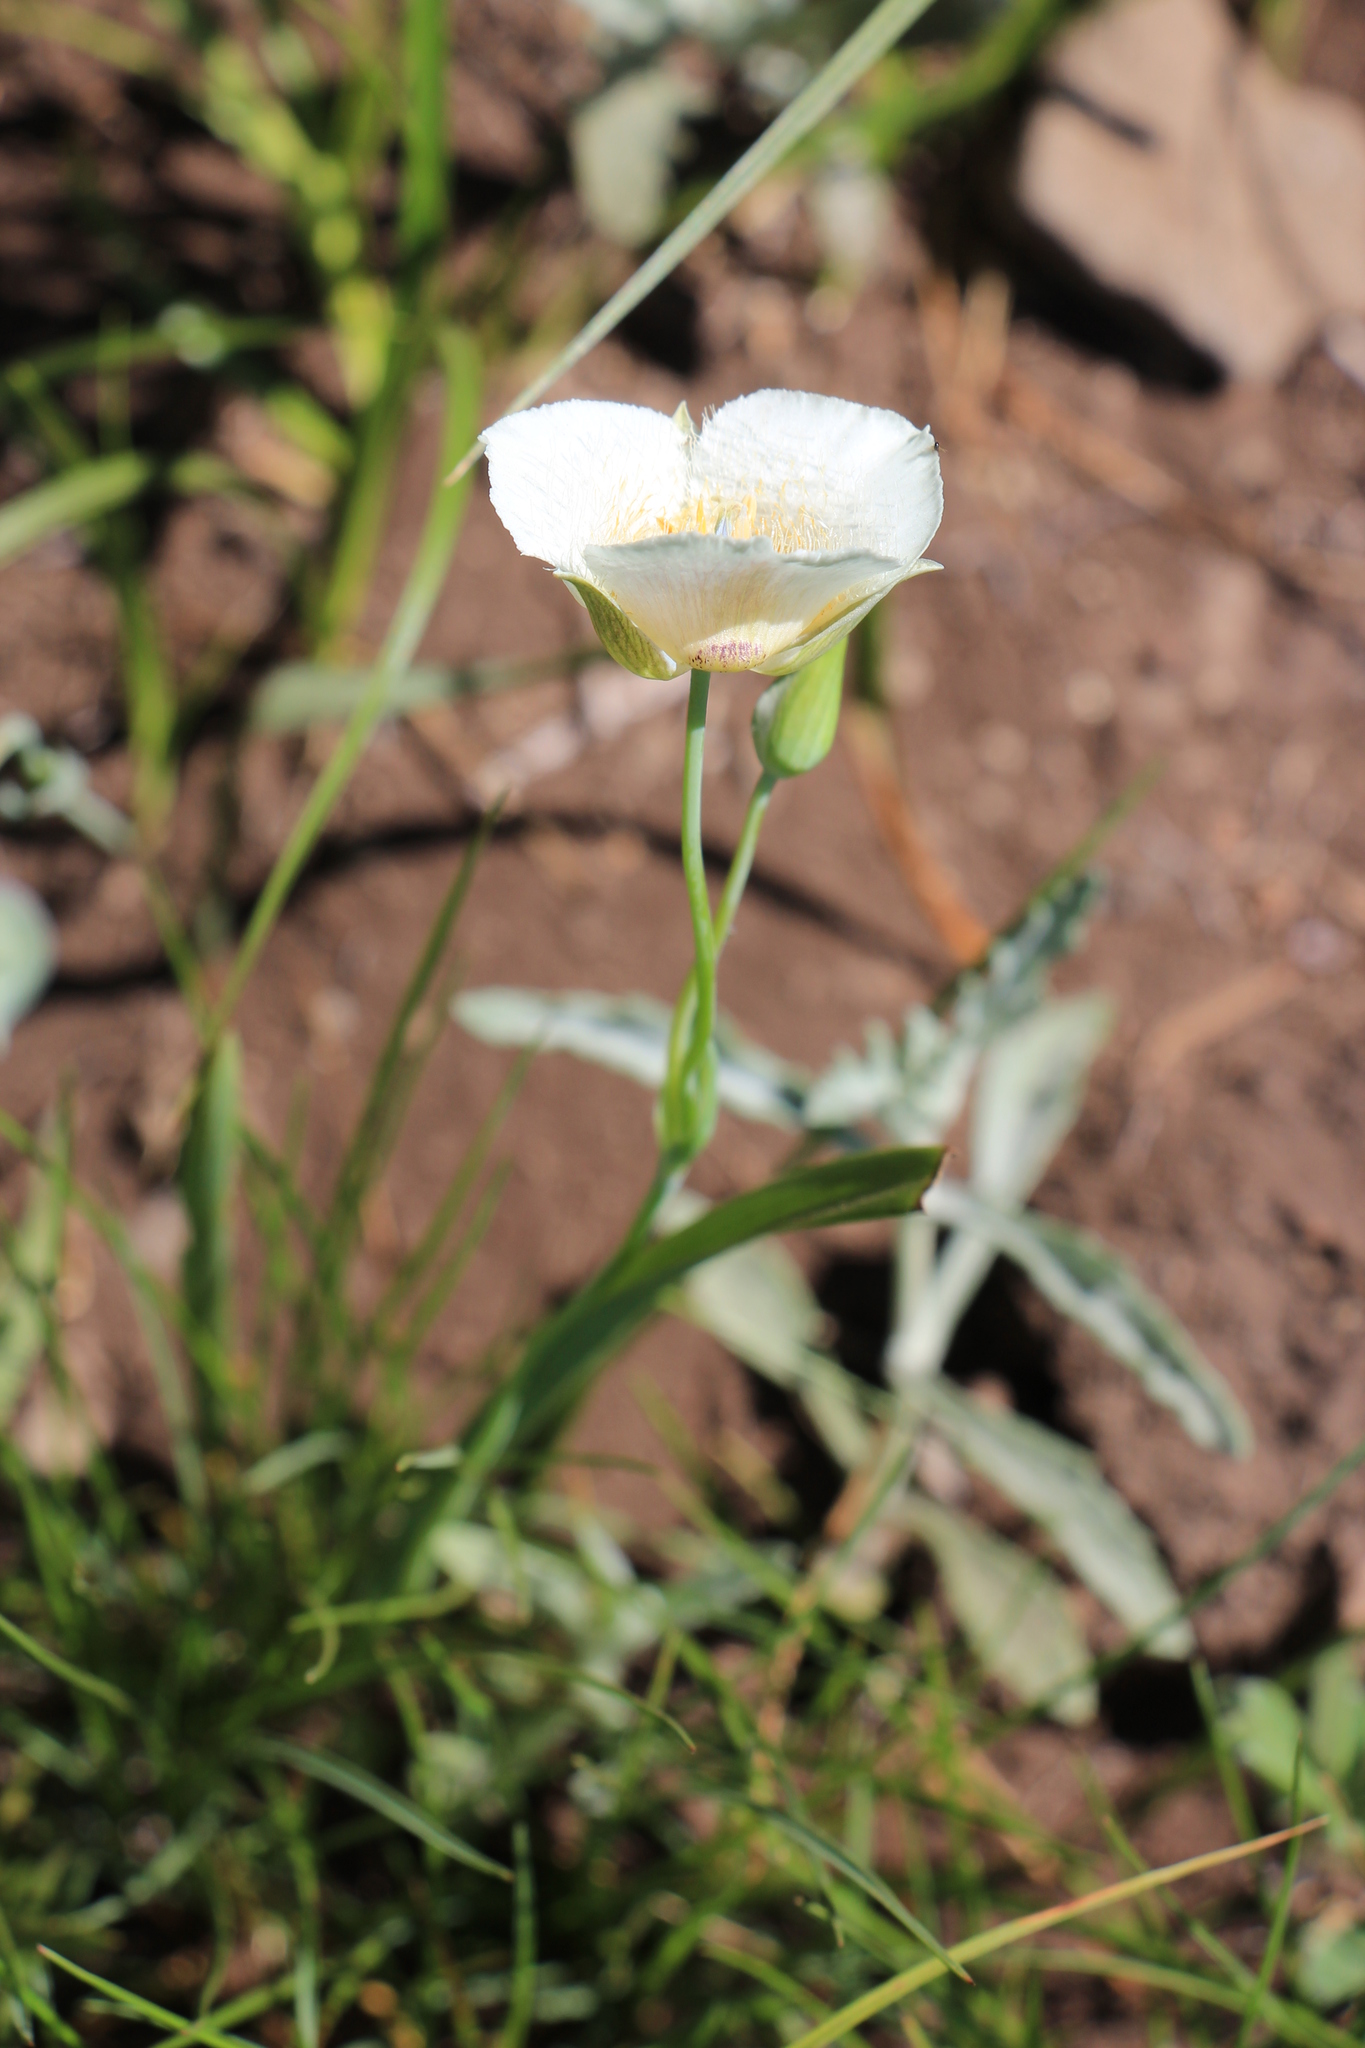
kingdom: Plantae
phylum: Tracheophyta
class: Liliopsida
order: Liliales
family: Liliaceae
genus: Calochortus
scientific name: Calochortus subalpinus
